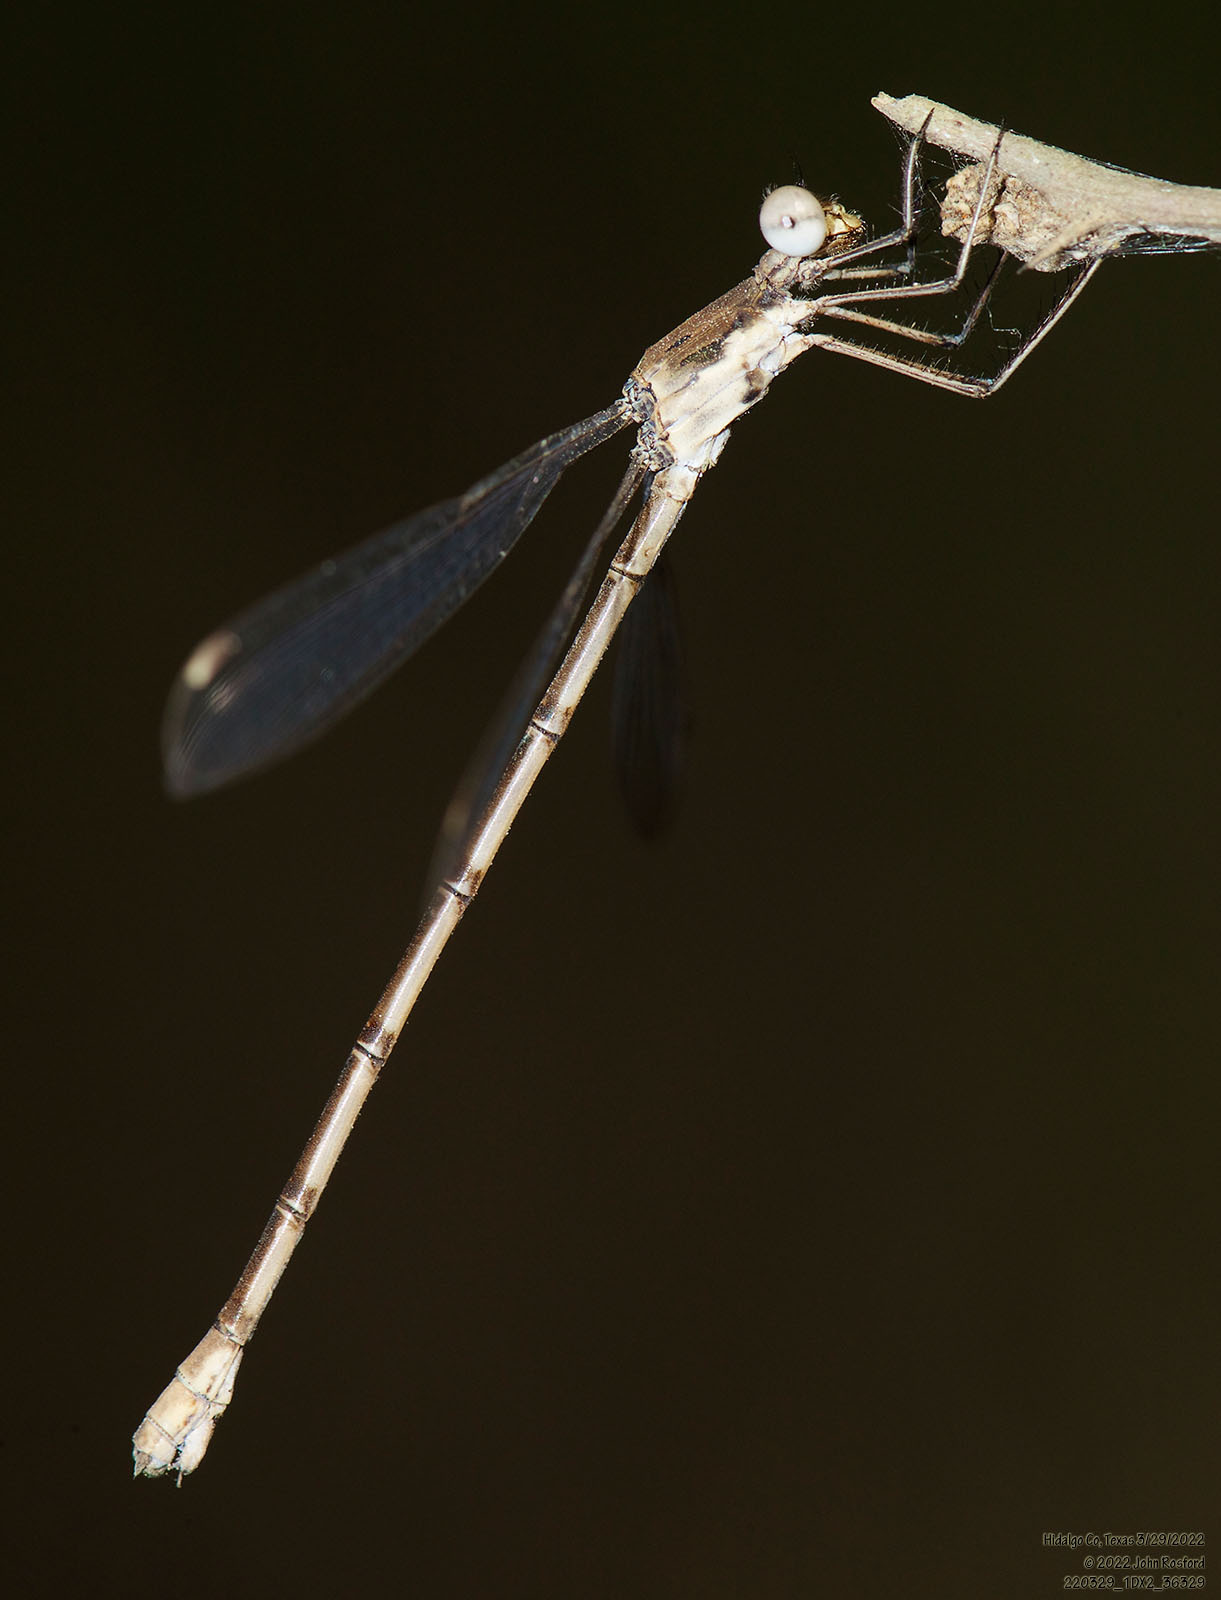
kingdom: Animalia
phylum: Arthropoda
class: Insecta
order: Odonata
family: Lestidae
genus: Lestes
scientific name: Lestes sigma
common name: Chalky spreadwing
